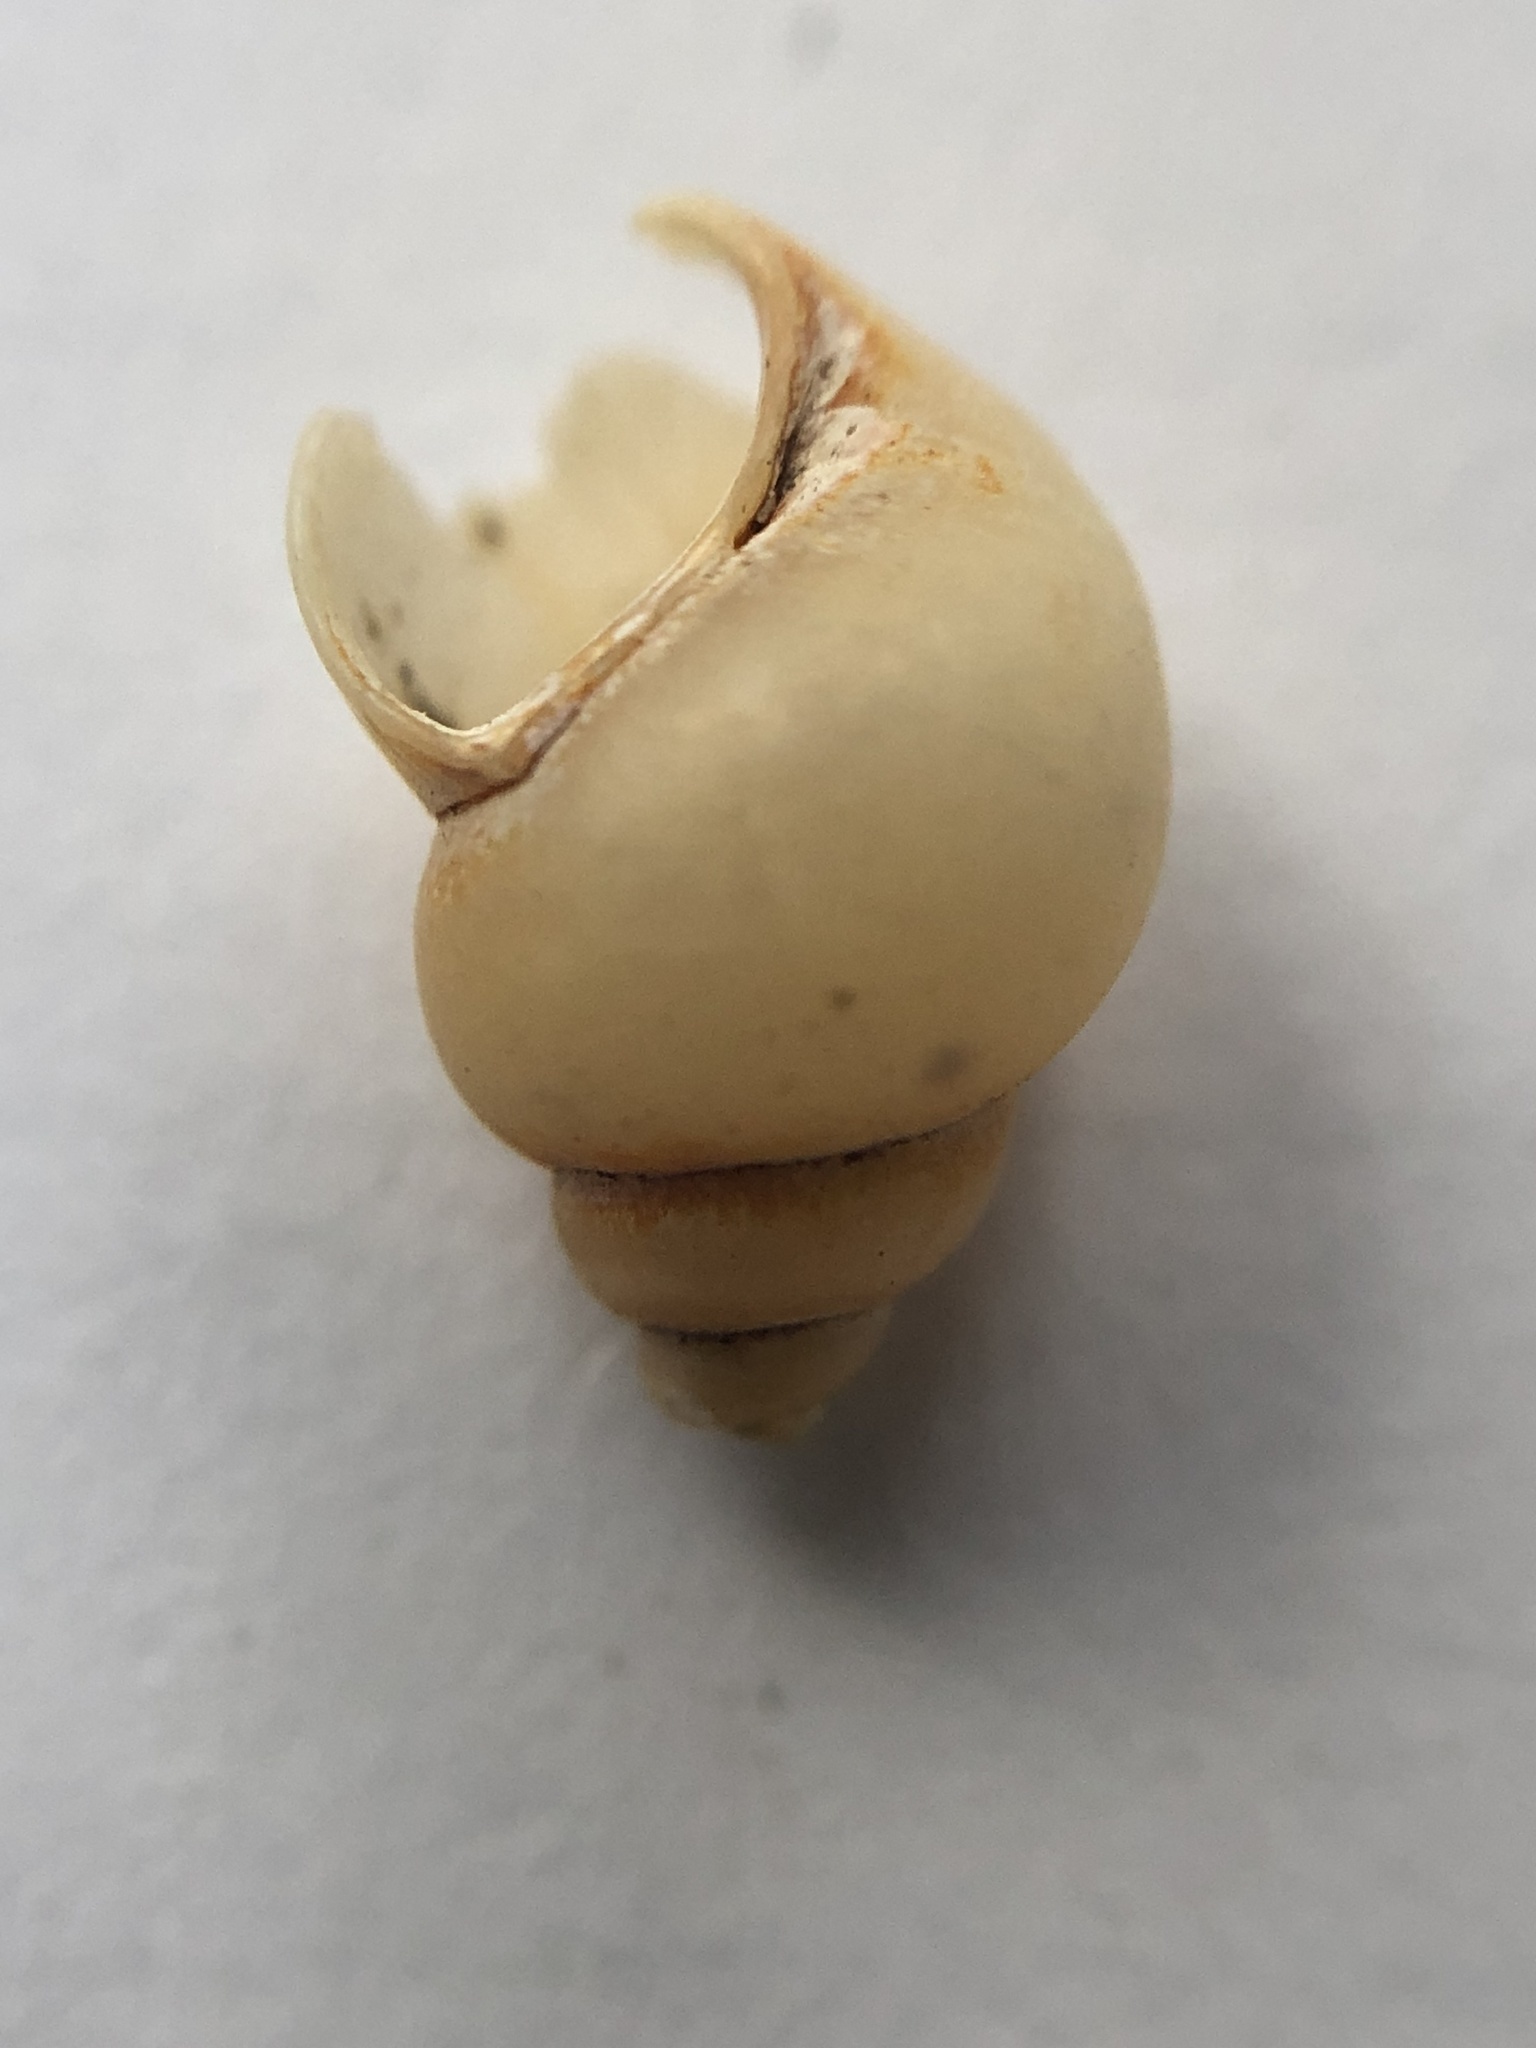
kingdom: Animalia
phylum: Mollusca
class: Gastropoda
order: Architaenioglossa
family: Viviparidae
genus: Campeloma
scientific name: Campeloma decisum
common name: Pointed campeloma
